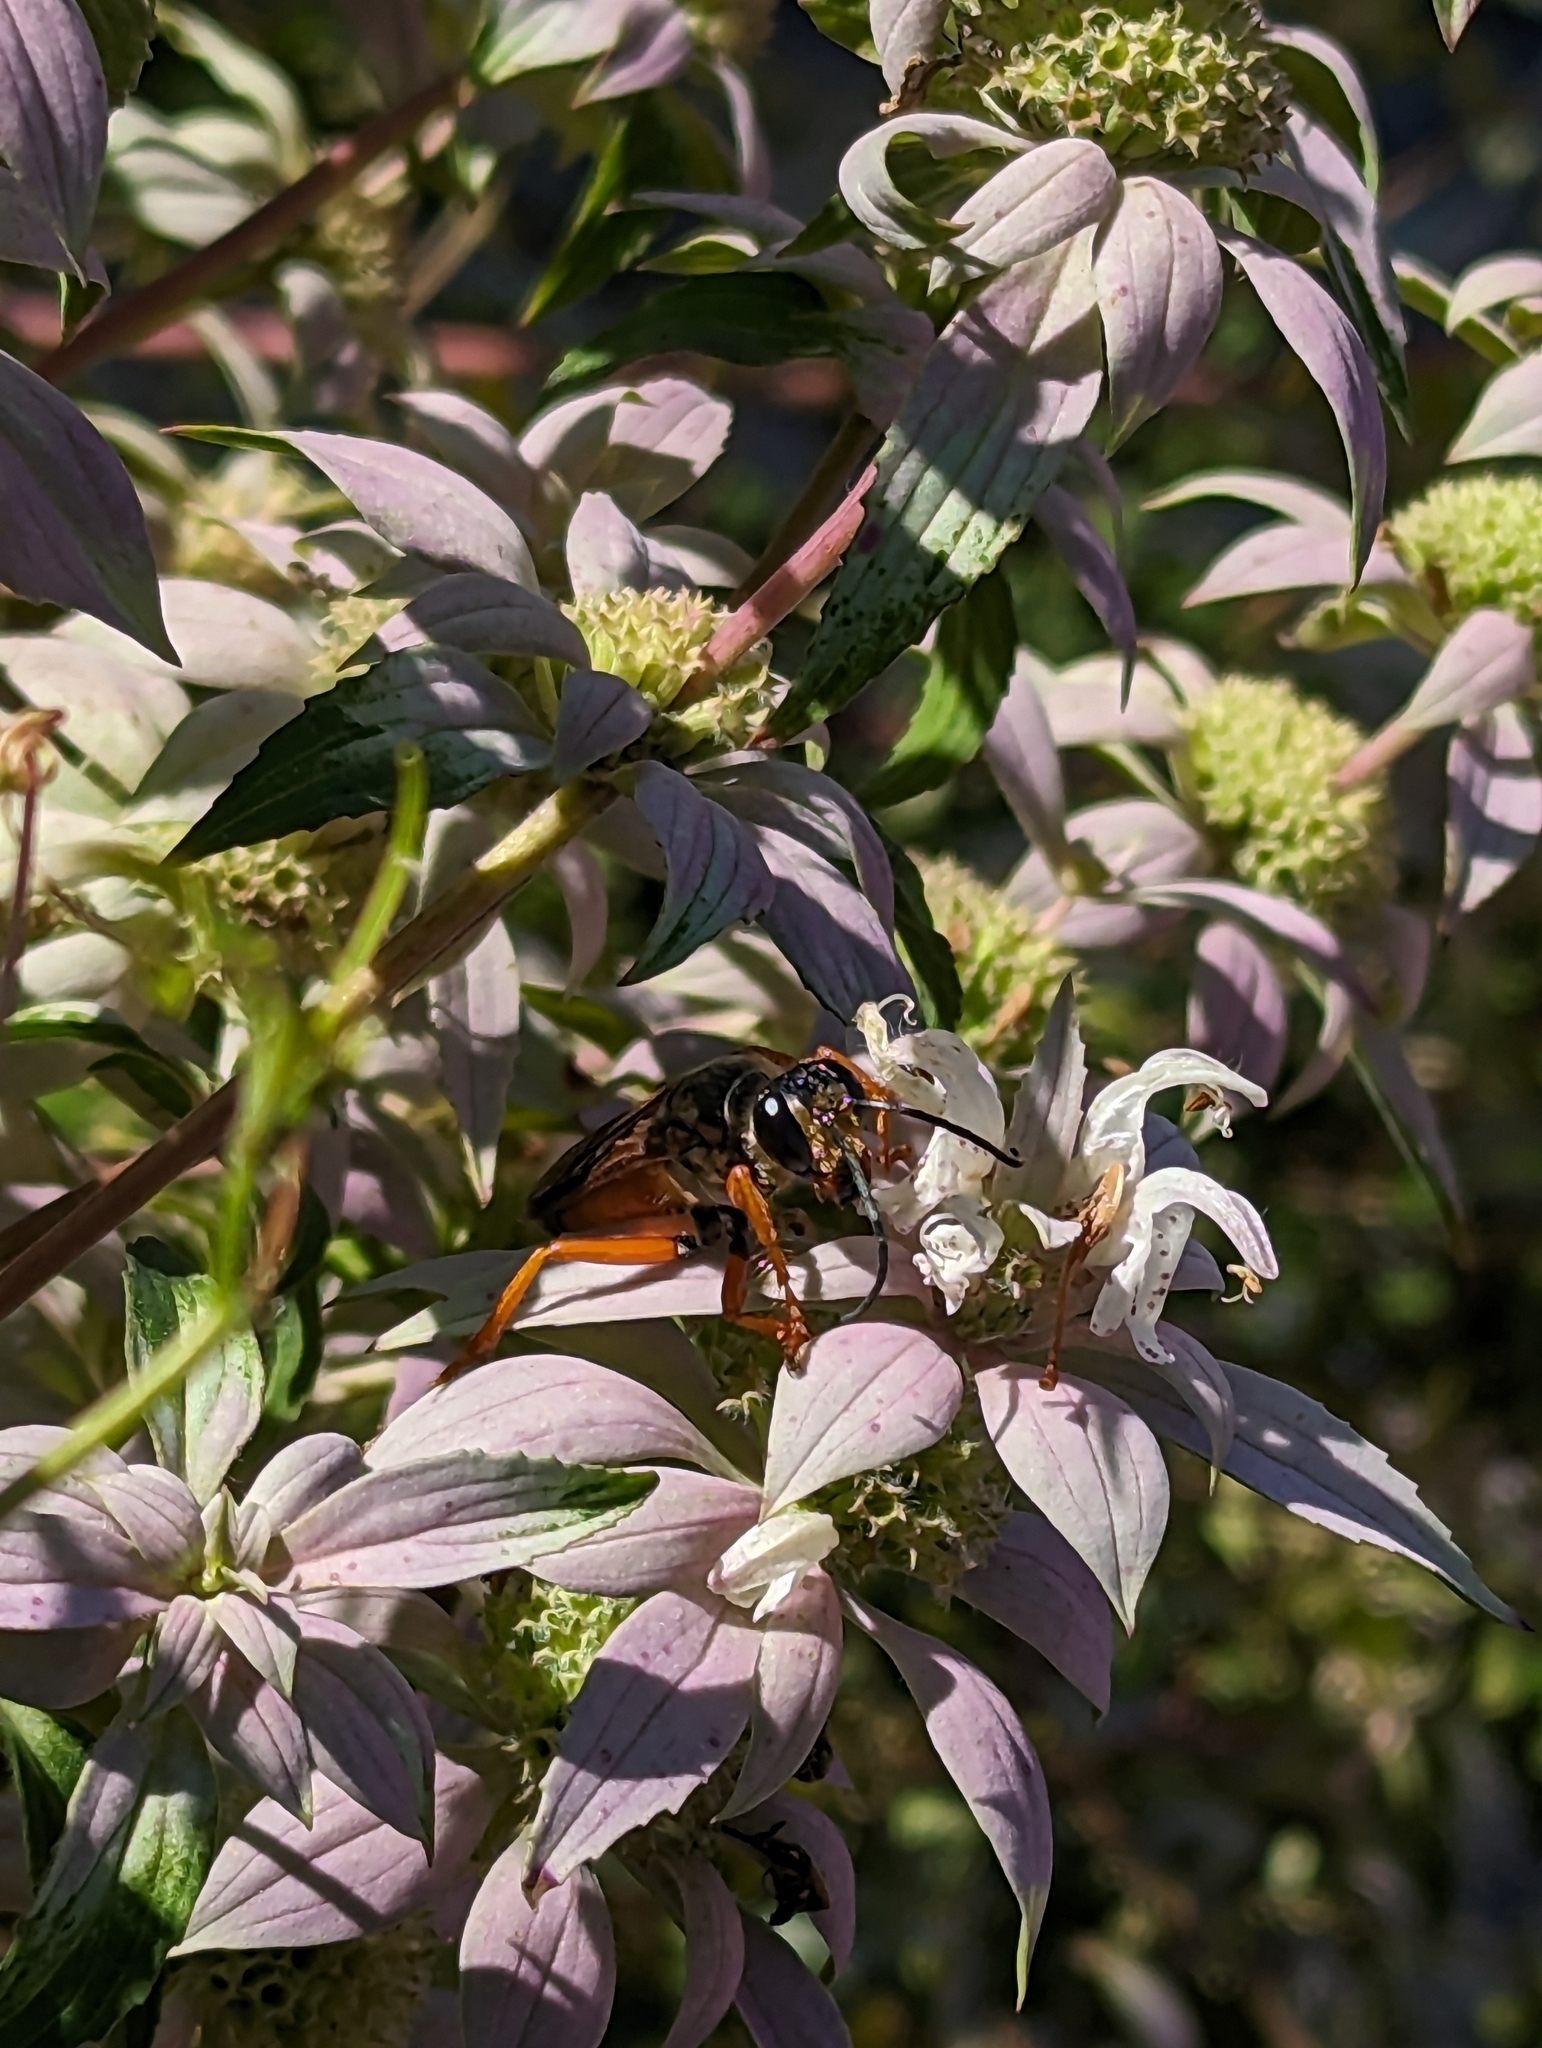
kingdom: Animalia
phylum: Arthropoda
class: Insecta
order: Hymenoptera
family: Sphecidae
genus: Sphex
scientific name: Sphex ichneumoneus
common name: Great golden digger wasp
